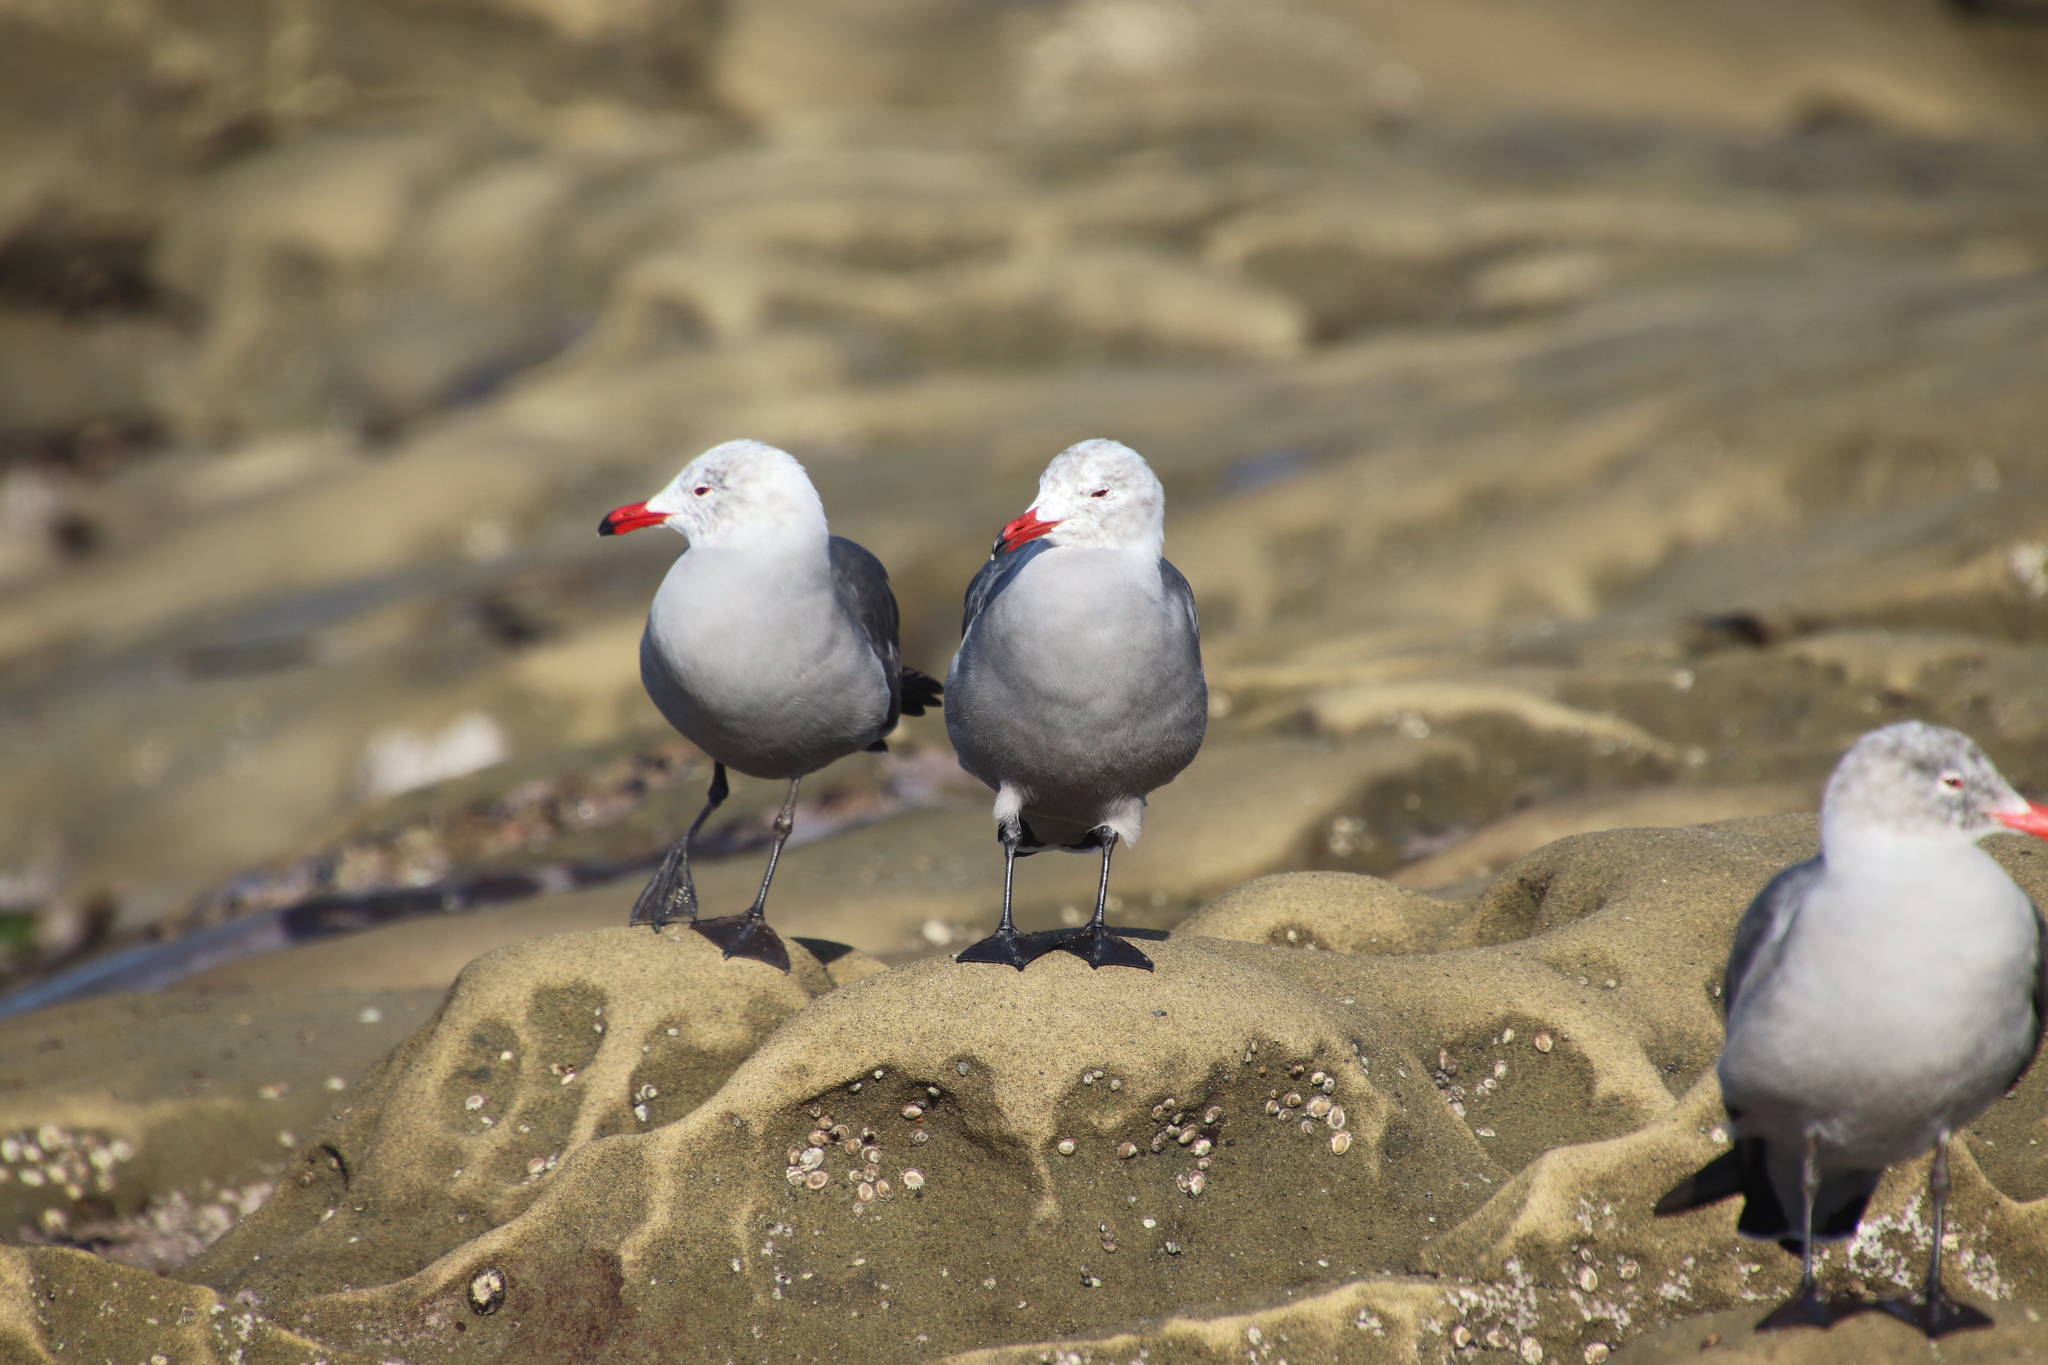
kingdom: Animalia
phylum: Chordata
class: Aves
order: Charadriiformes
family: Laridae
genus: Larus
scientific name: Larus heermanni
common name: Heermann's gull
